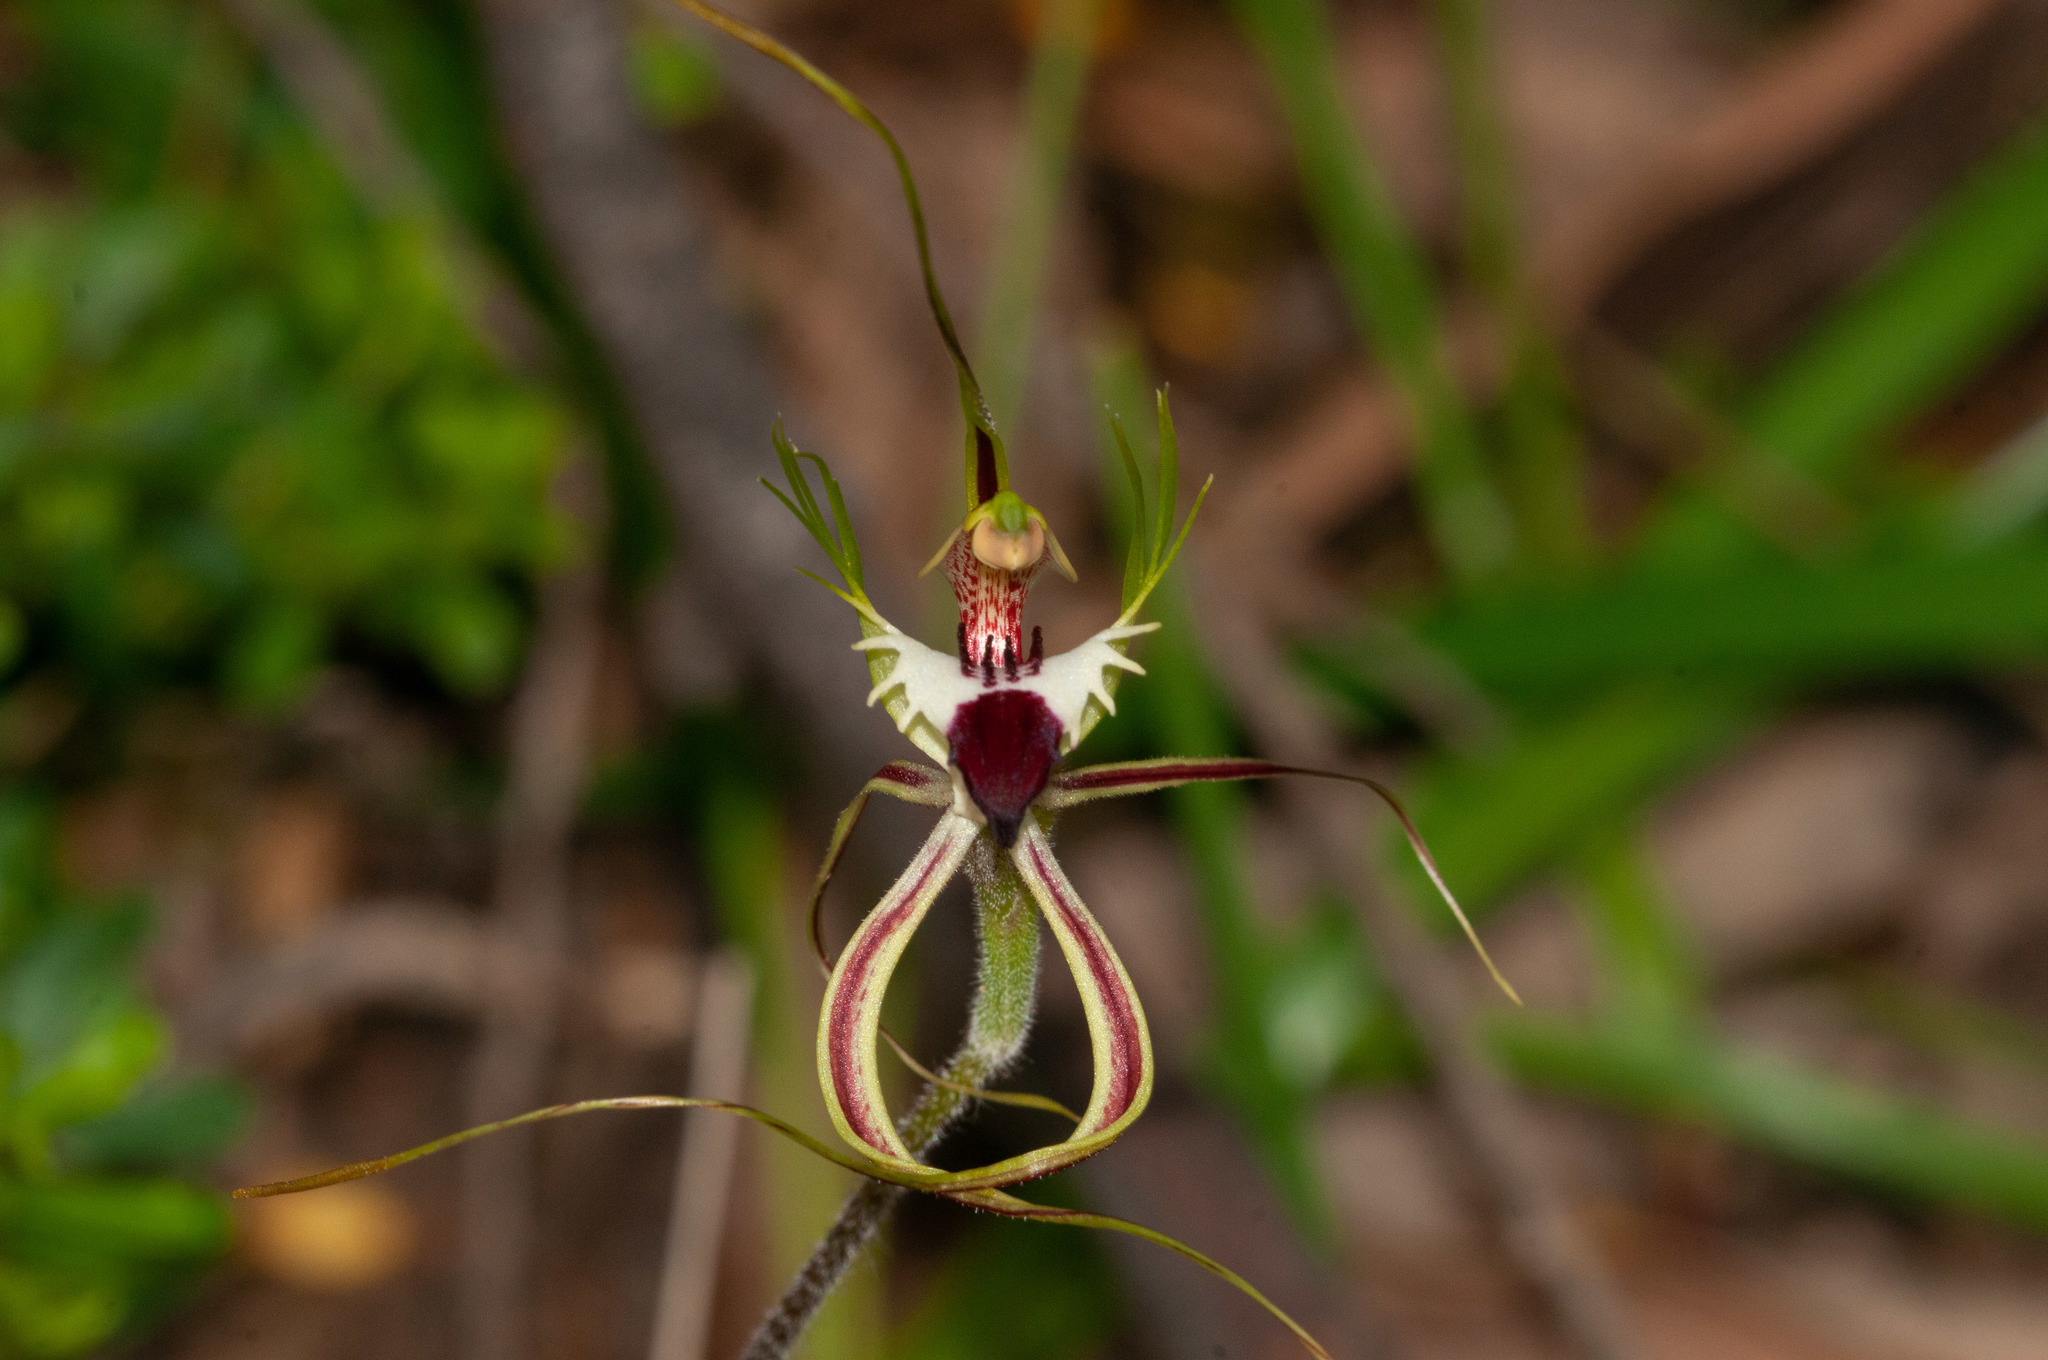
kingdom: Plantae
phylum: Tracheophyta
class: Liliopsida
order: Asparagales
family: Orchidaceae
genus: Caladenia
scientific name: Caladenia tentaculata
